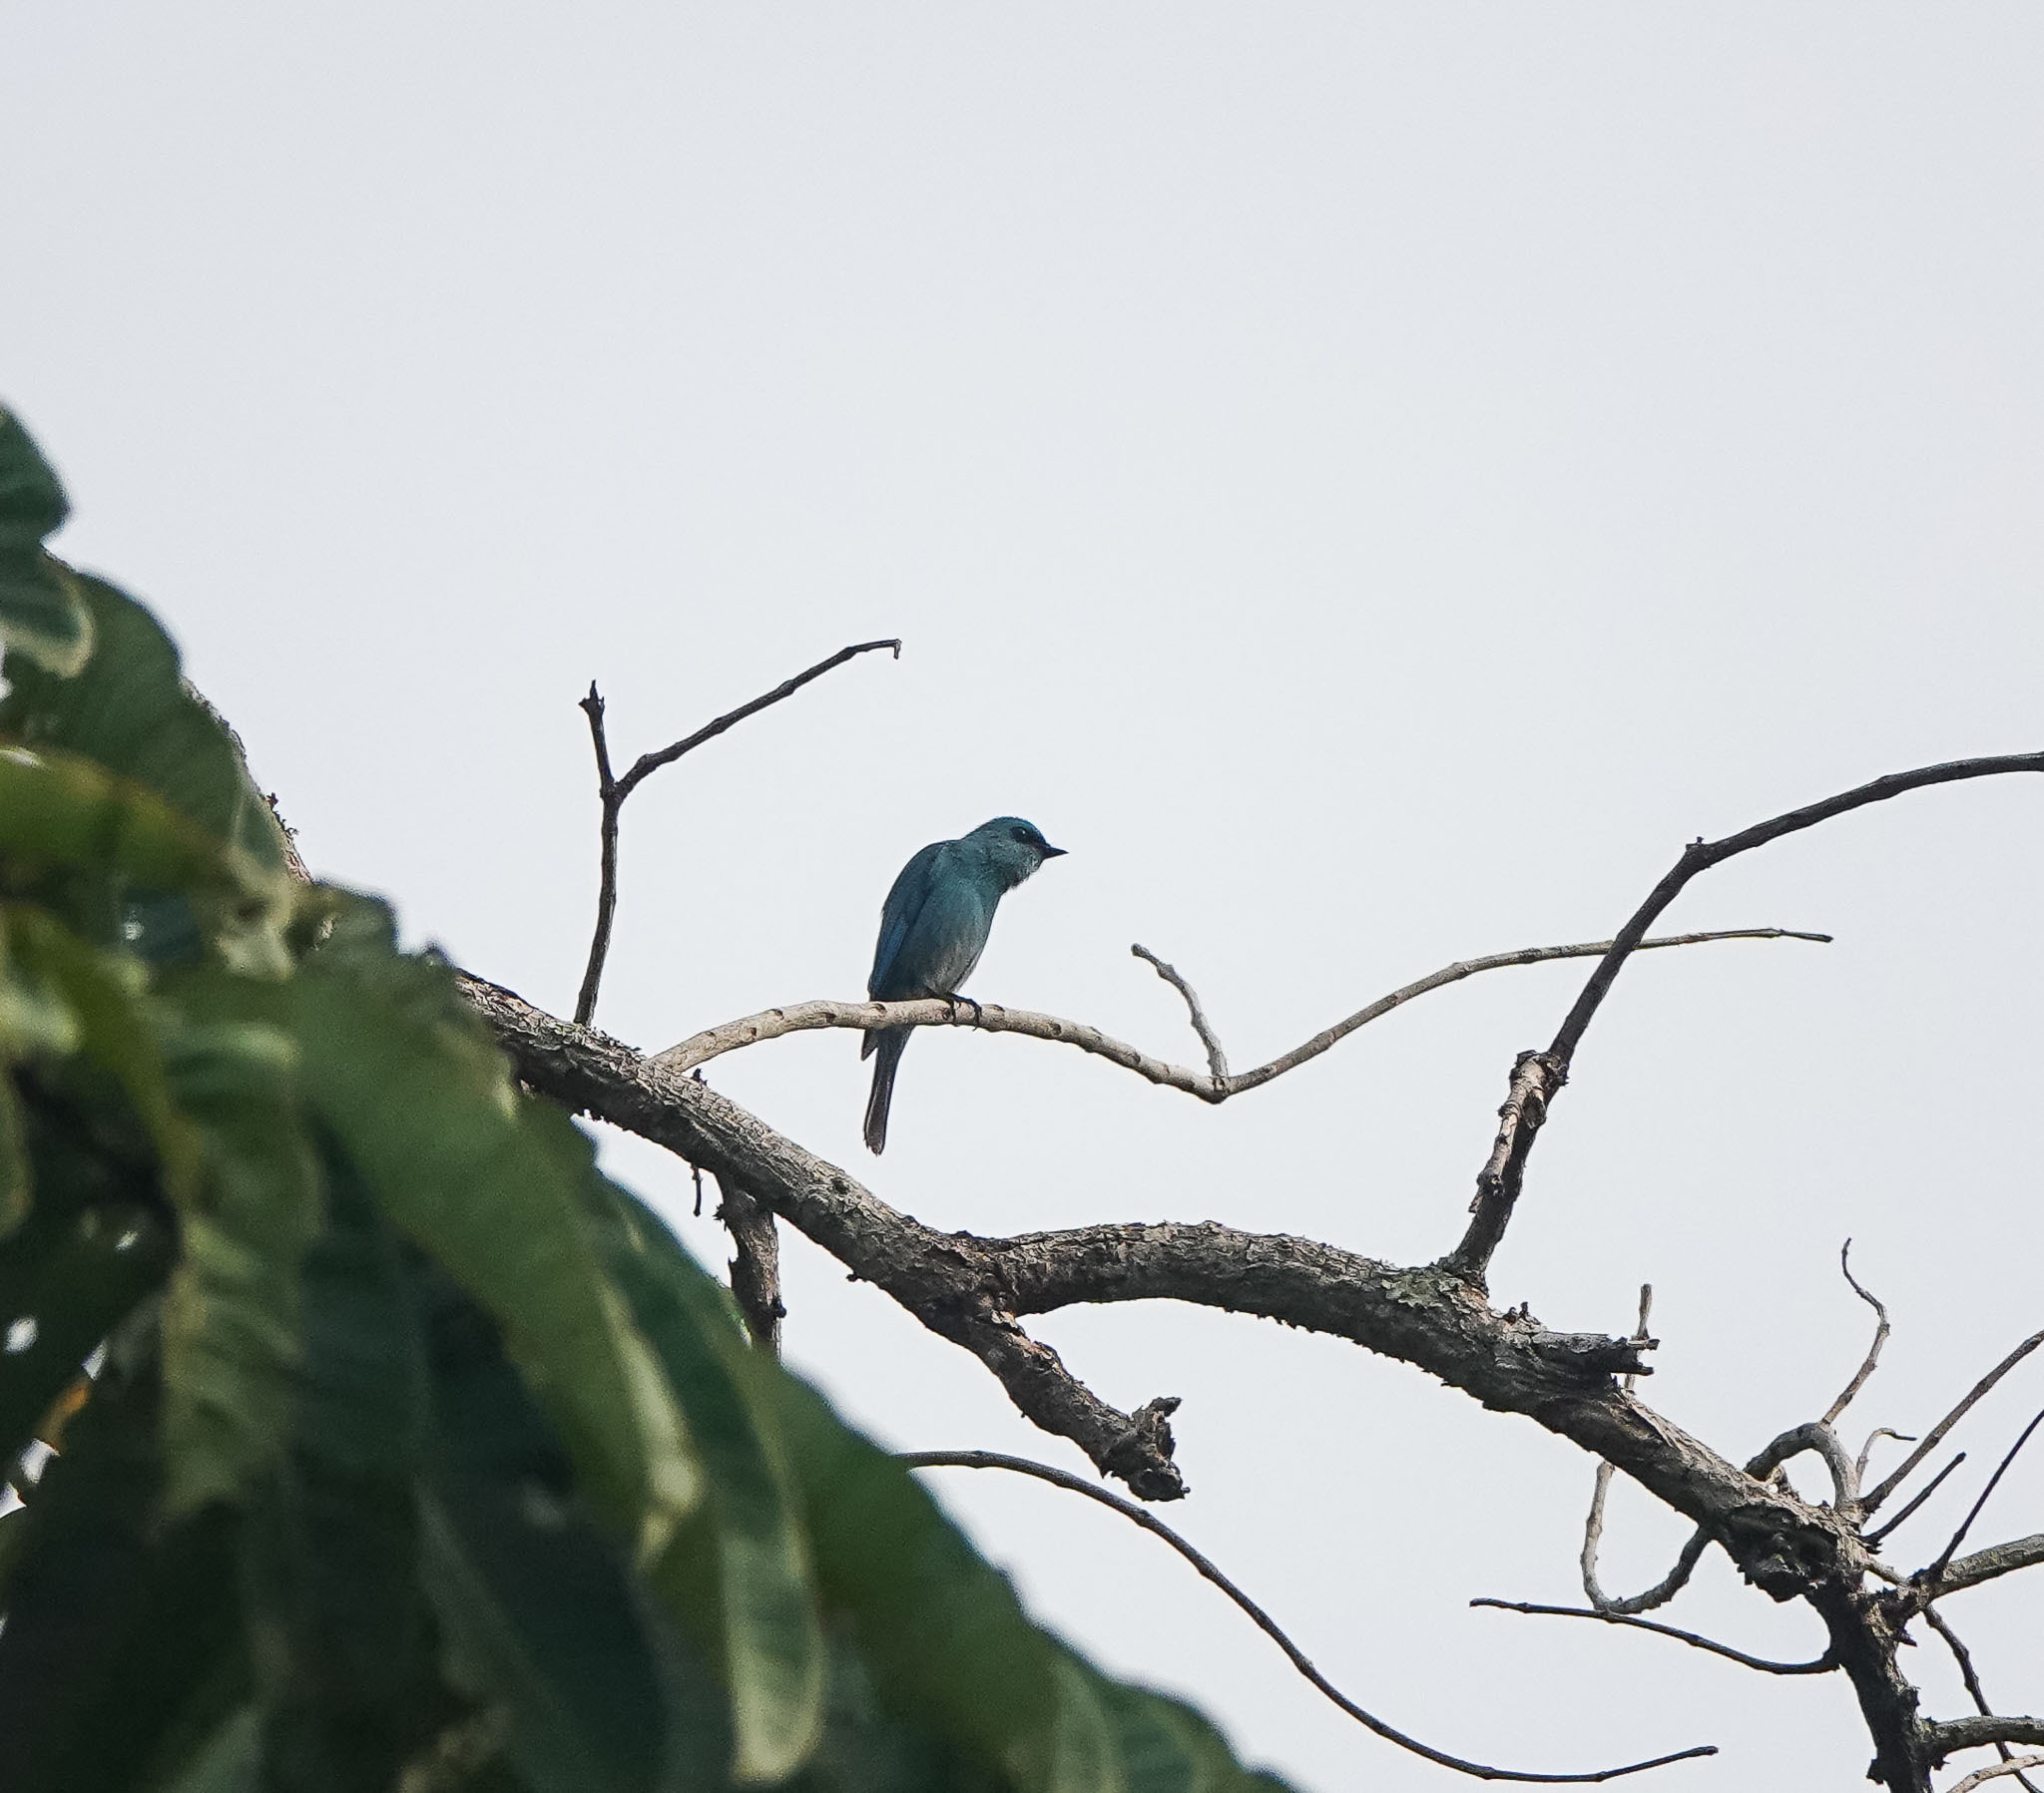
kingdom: Animalia
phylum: Chordata
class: Aves
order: Passeriformes
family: Muscicapidae
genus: Eumyias
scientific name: Eumyias thalassinus
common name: Verditer flycatcher
